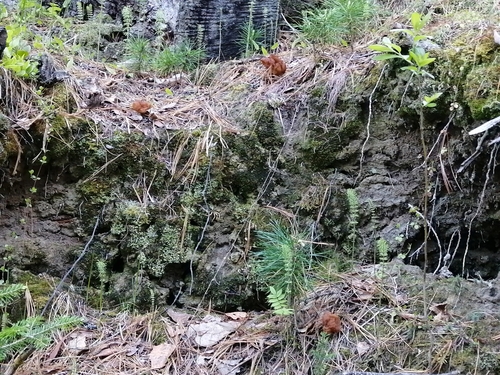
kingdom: Fungi
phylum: Ascomycota
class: Pezizomycetes
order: Pezizales
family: Discinaceae
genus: Gyromitra
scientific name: Gyromitra
